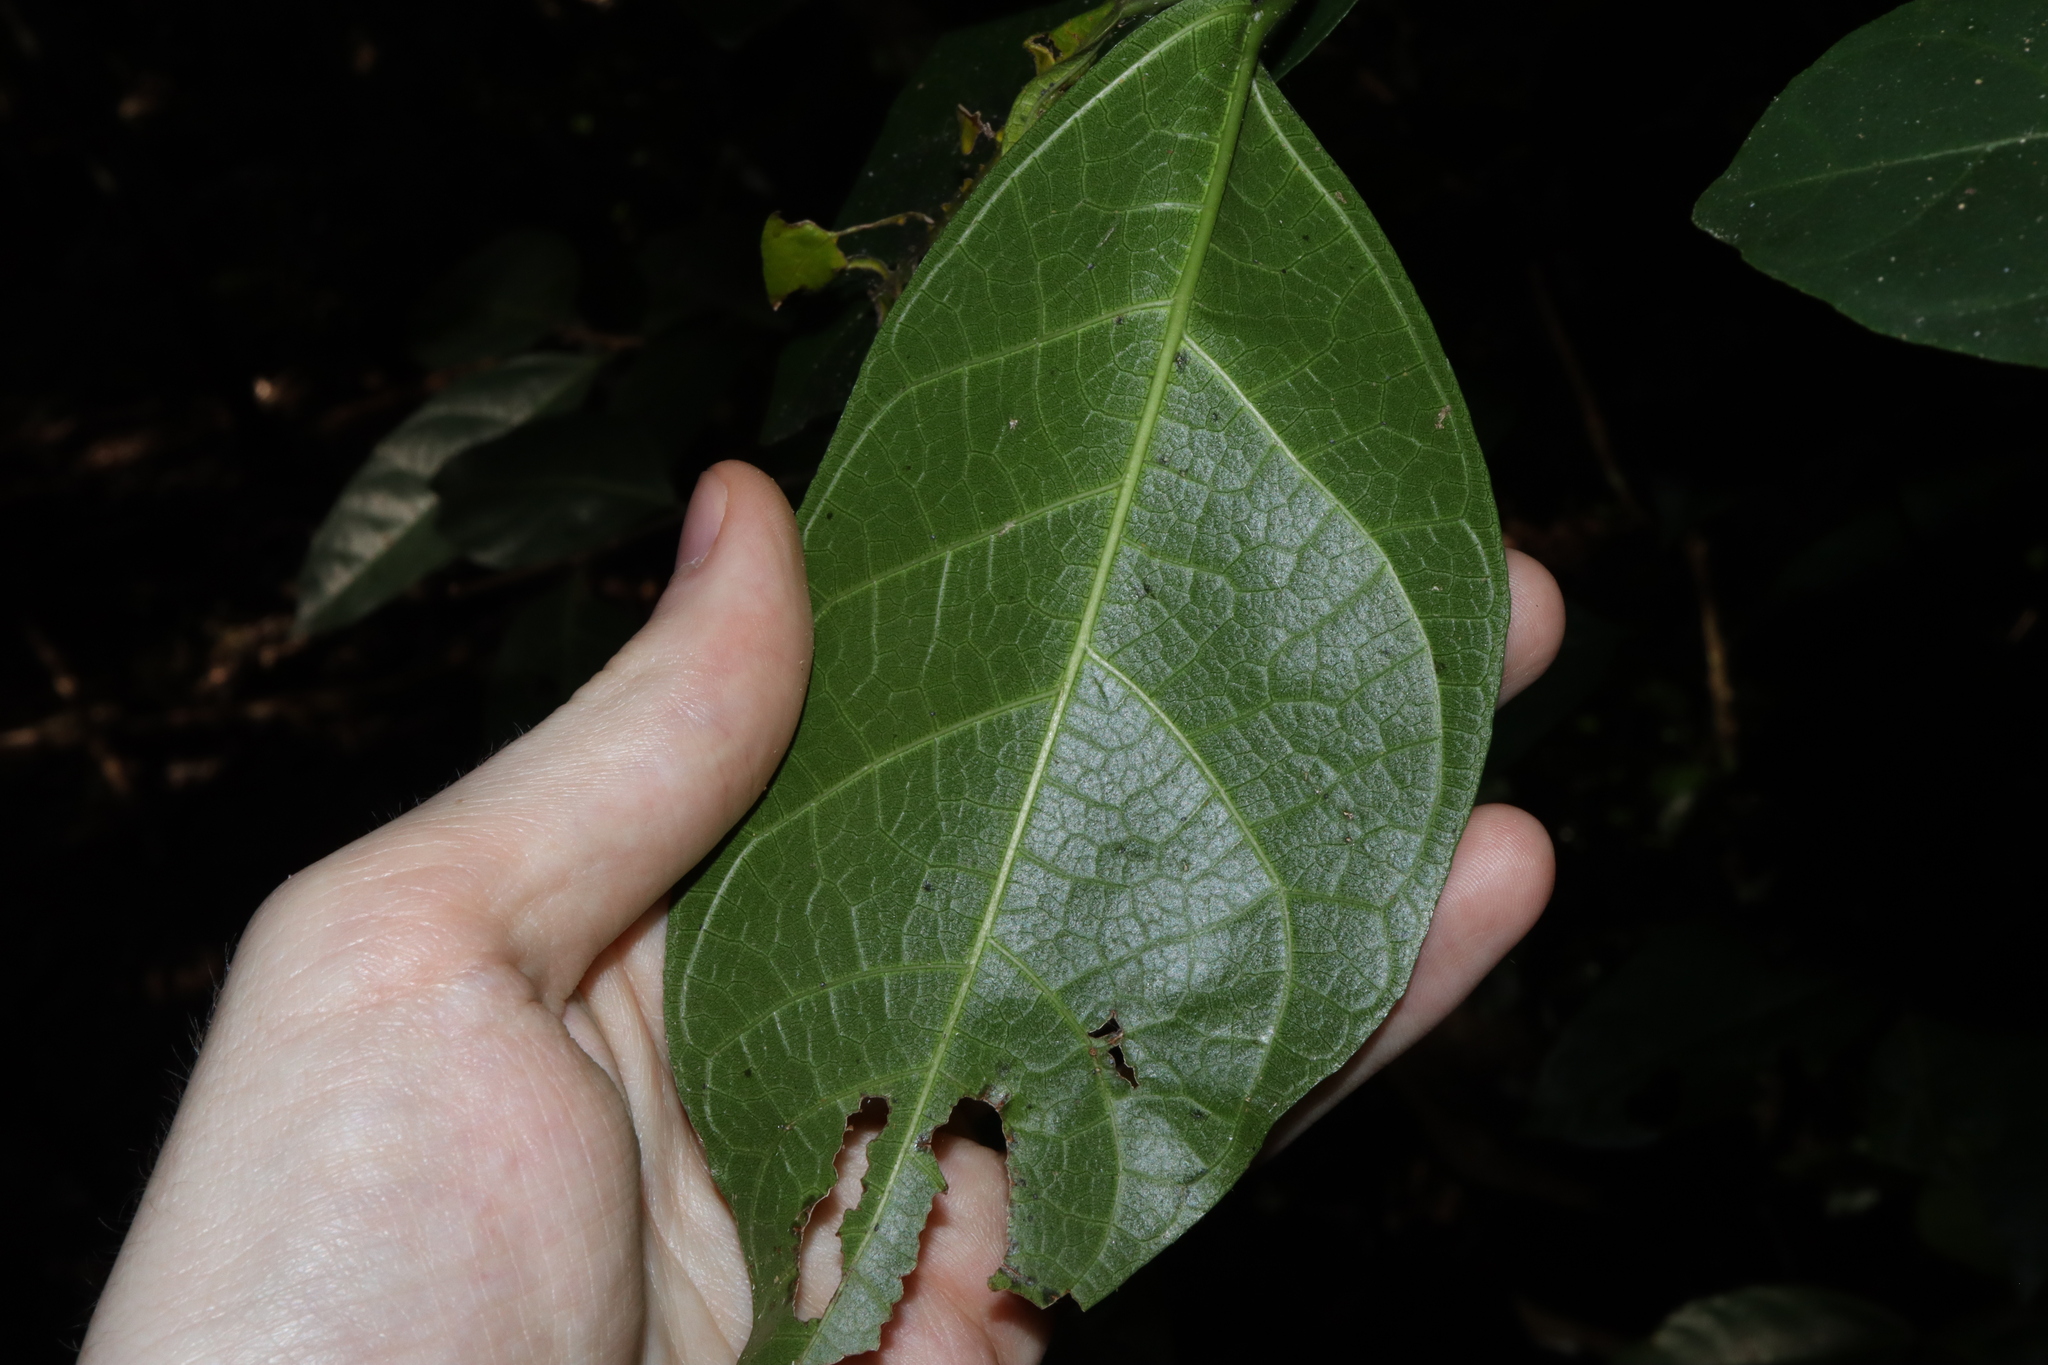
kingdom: Plantae
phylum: Tracheophyta
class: Magnoliopsida
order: Rosales
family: Moraceae
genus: Ficus
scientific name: Ficus fraseri
